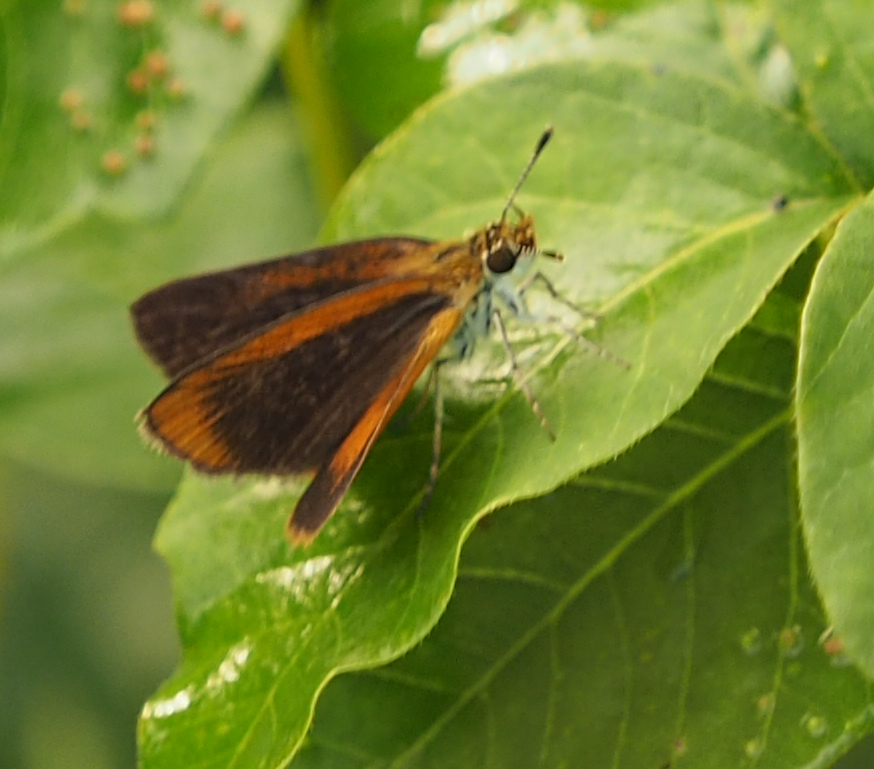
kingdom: Animalia
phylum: Arthropoda
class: Insecta
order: Lepidoptera
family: Hesperiidae
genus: Ancyloxypha
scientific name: Ancyloxypha numitor
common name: Least skipper
